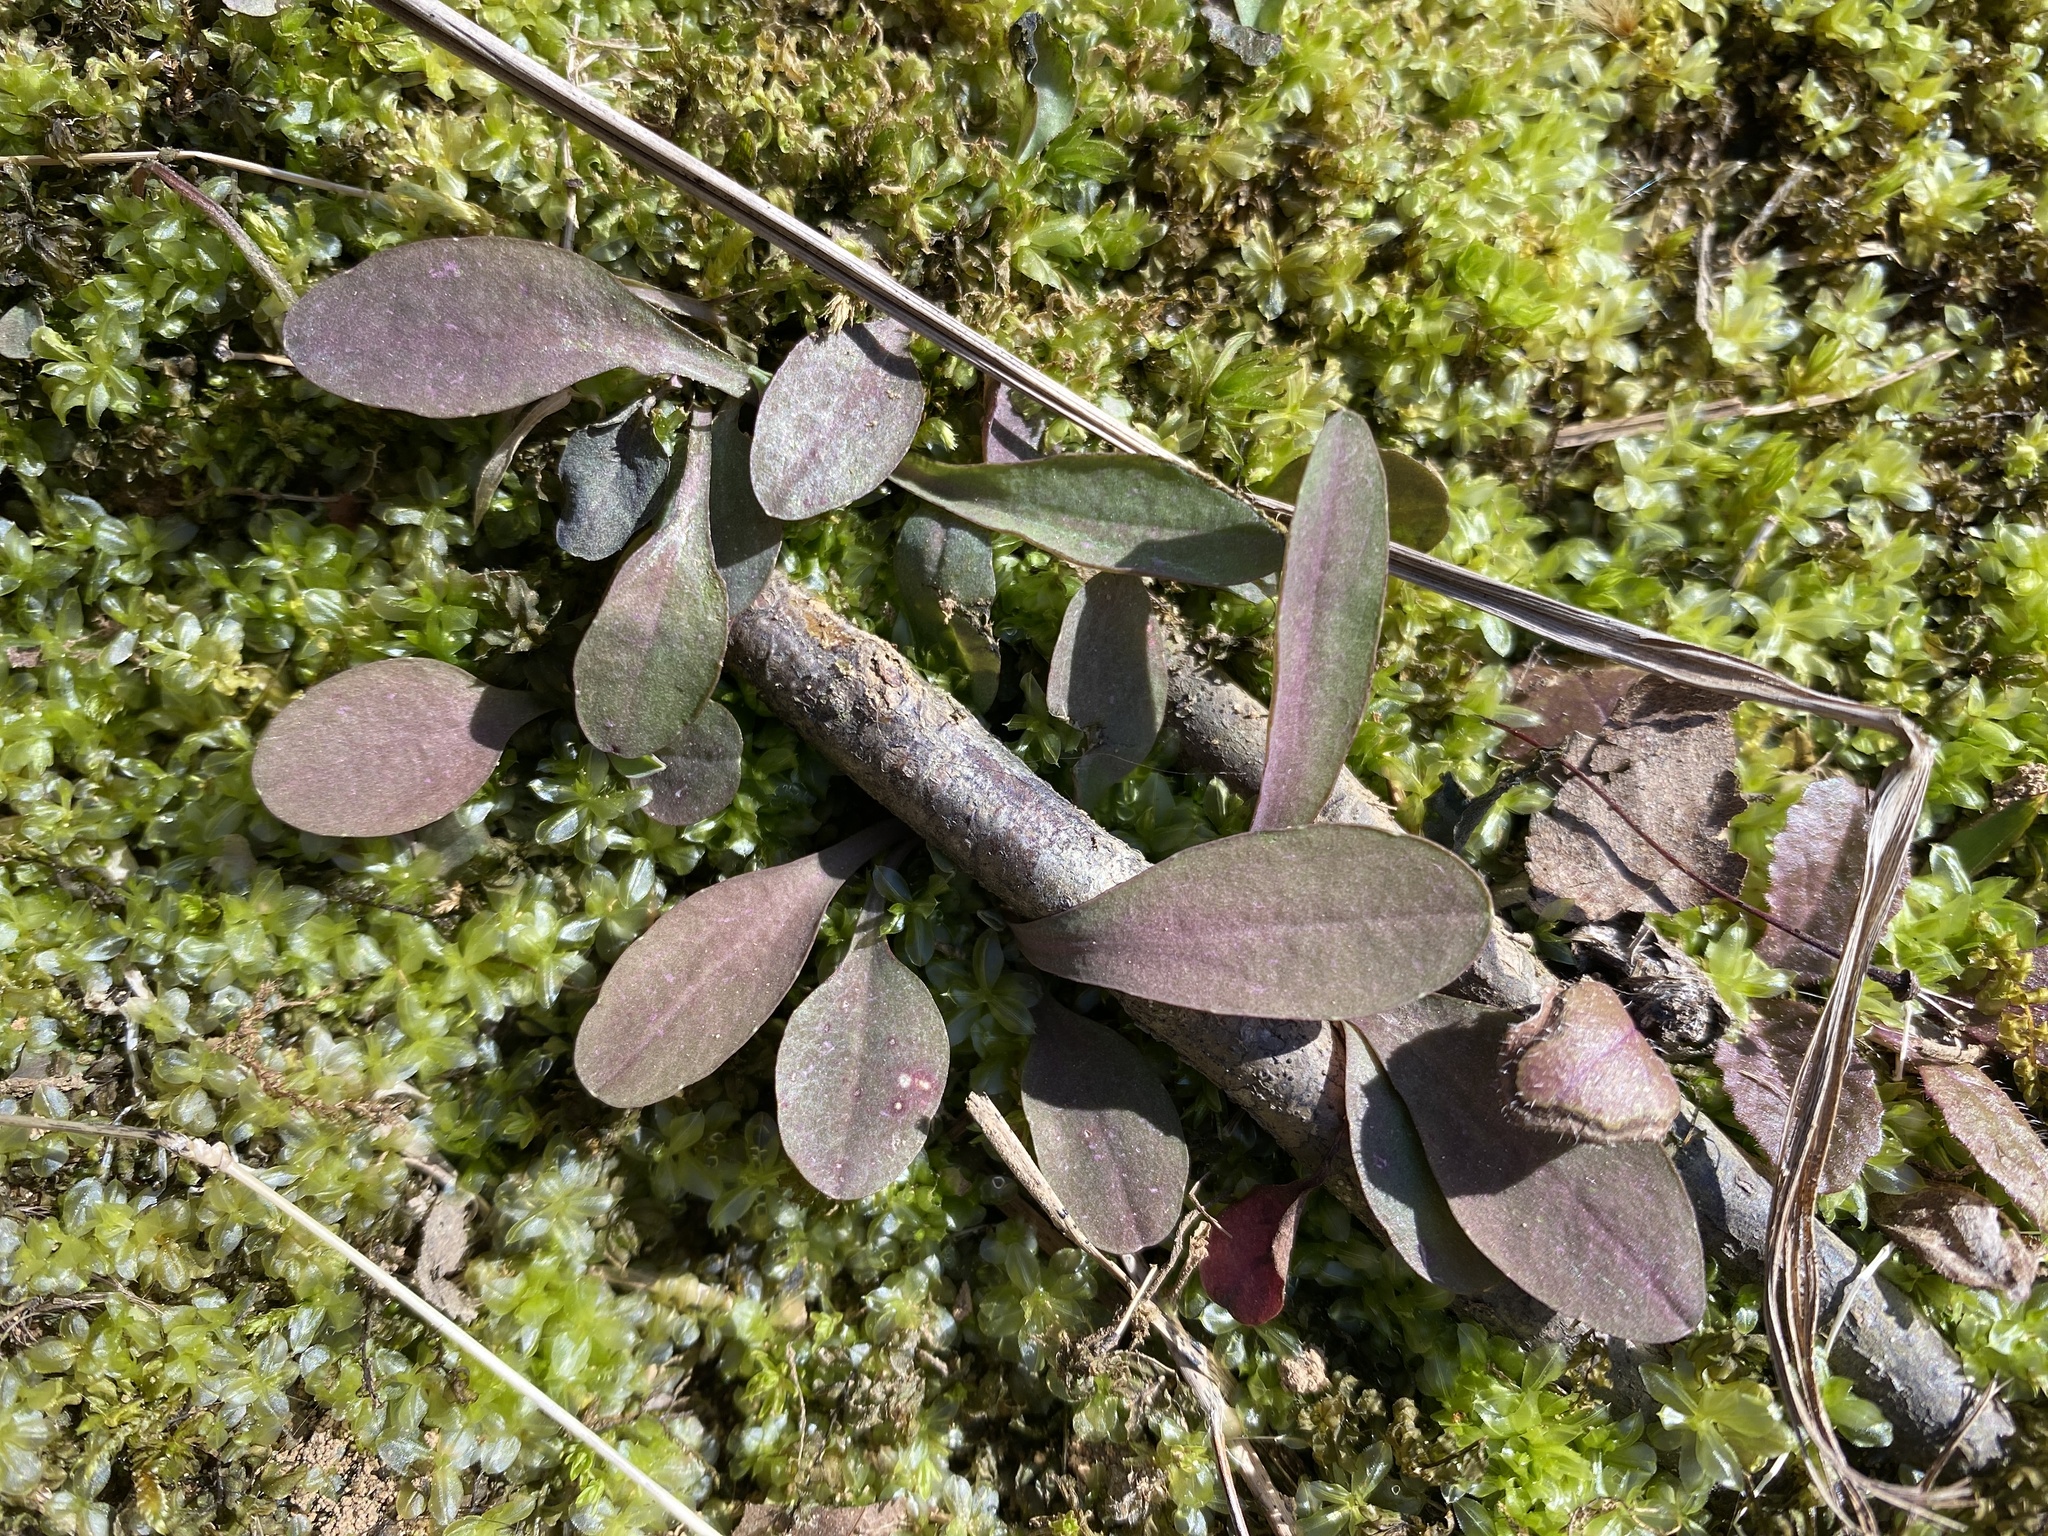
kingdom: Plantae
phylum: Tracheophyta
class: Magnoliopsida
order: Asterales
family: Asteraceae
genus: Krigia
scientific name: Krigia biflora
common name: Orange dwarf-dandelion
